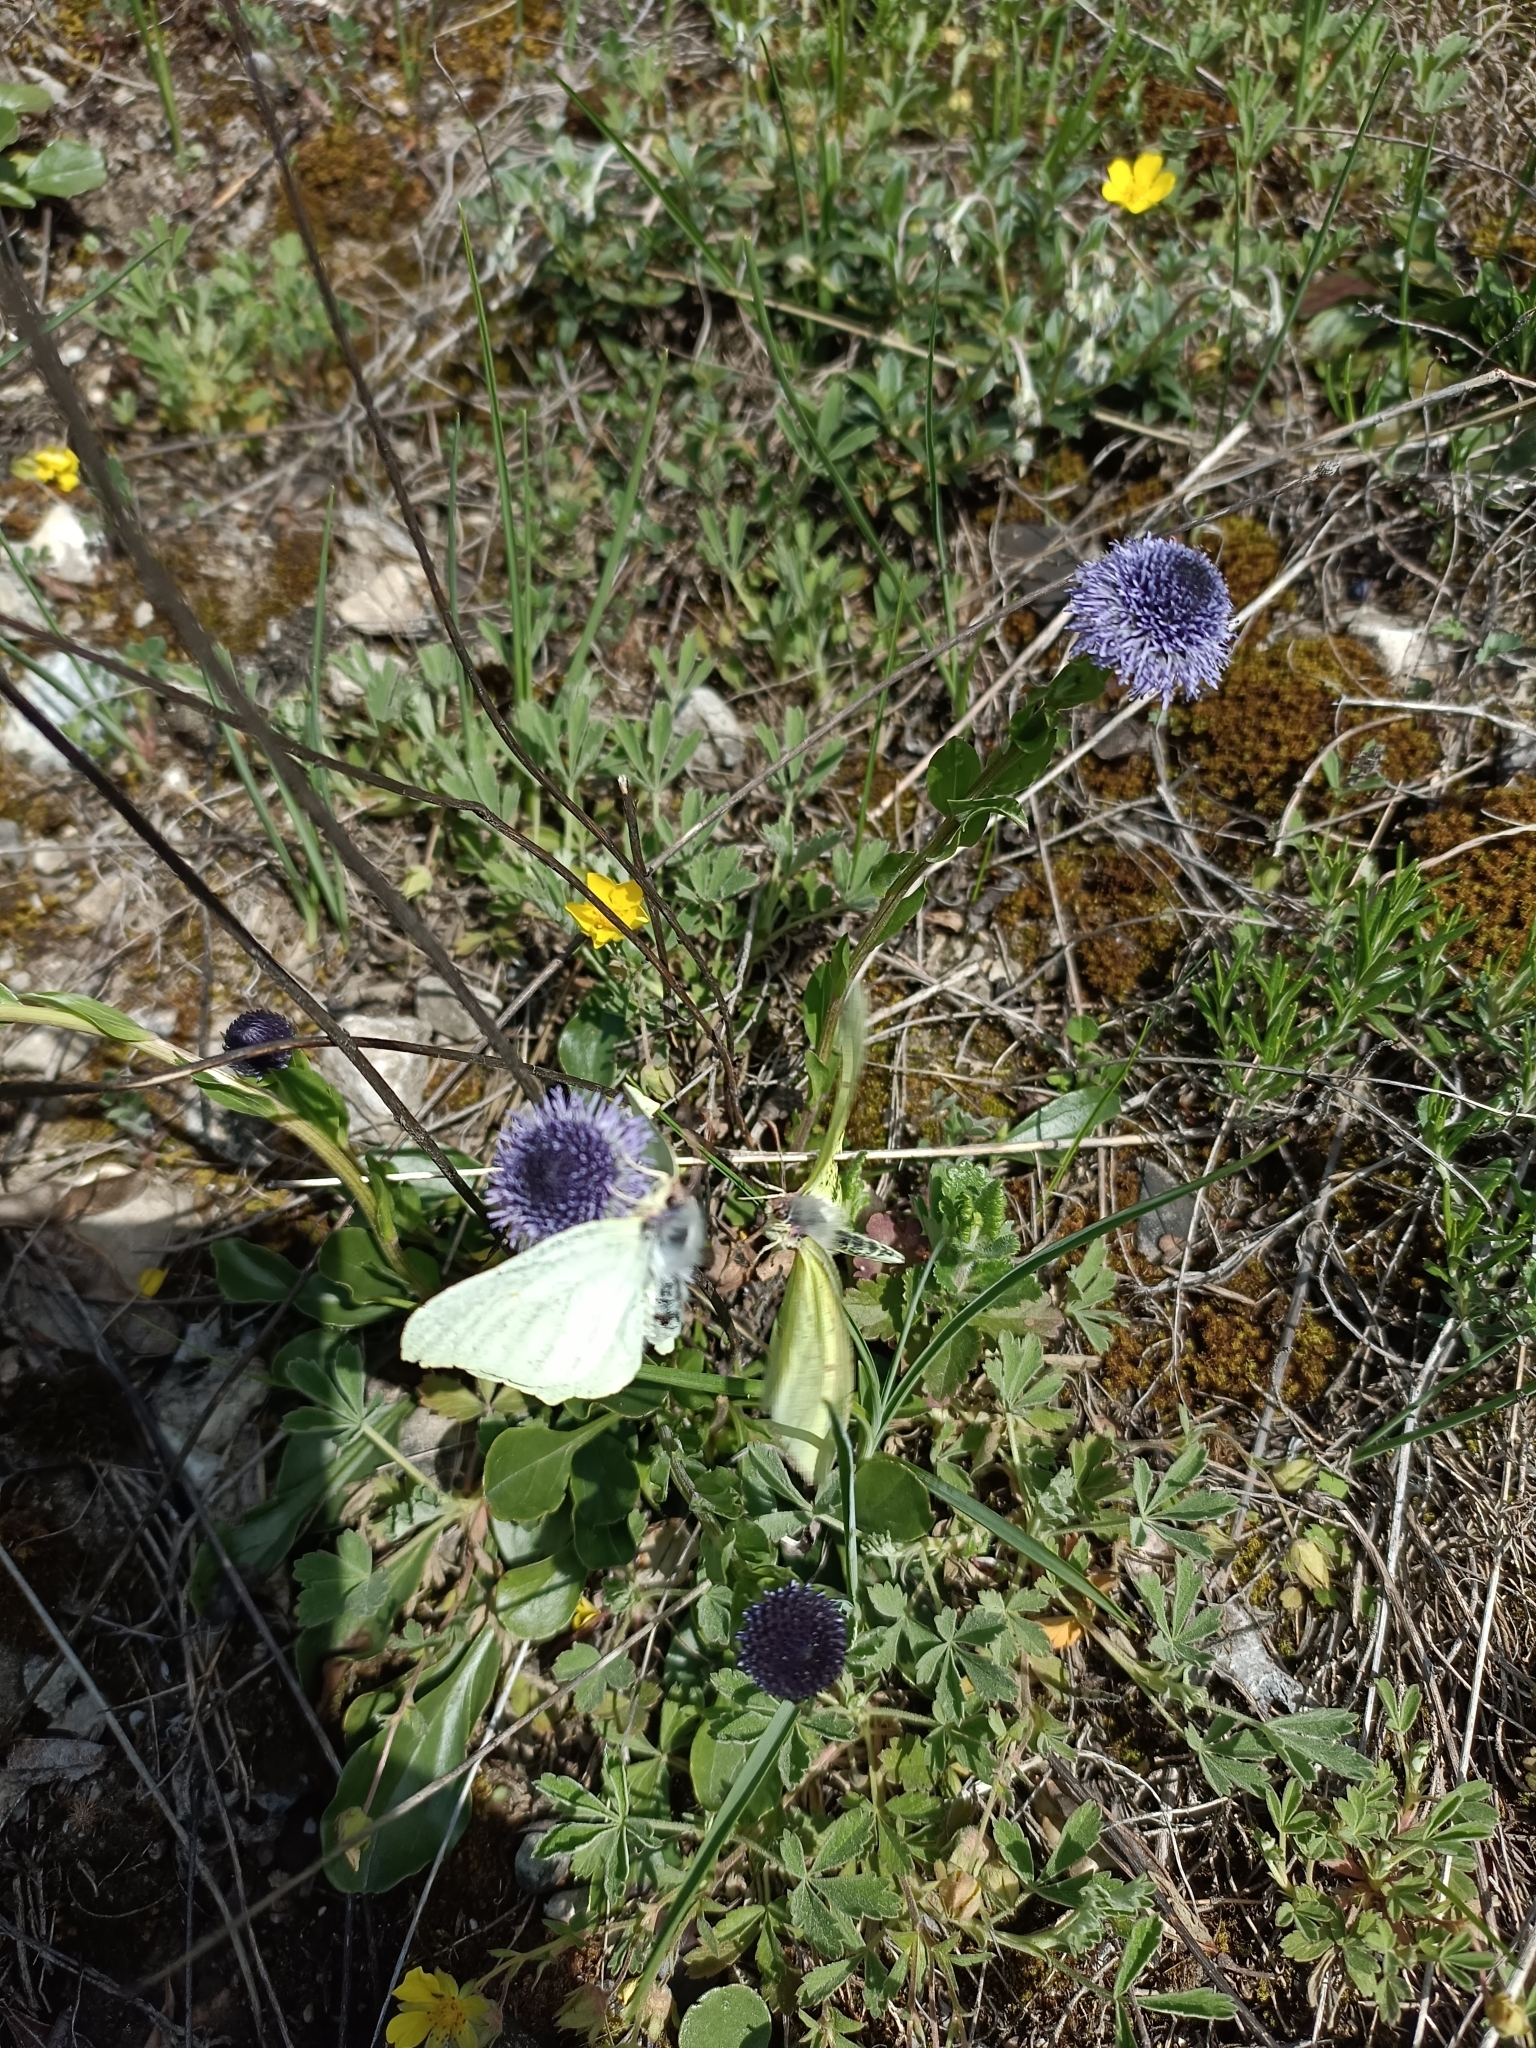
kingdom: Animalia
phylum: Arthropoda
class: Insecta
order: Lepidoptera
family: Pieridae
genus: Gonepteryx
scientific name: Gonepteryx rhamni
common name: Brimstone
